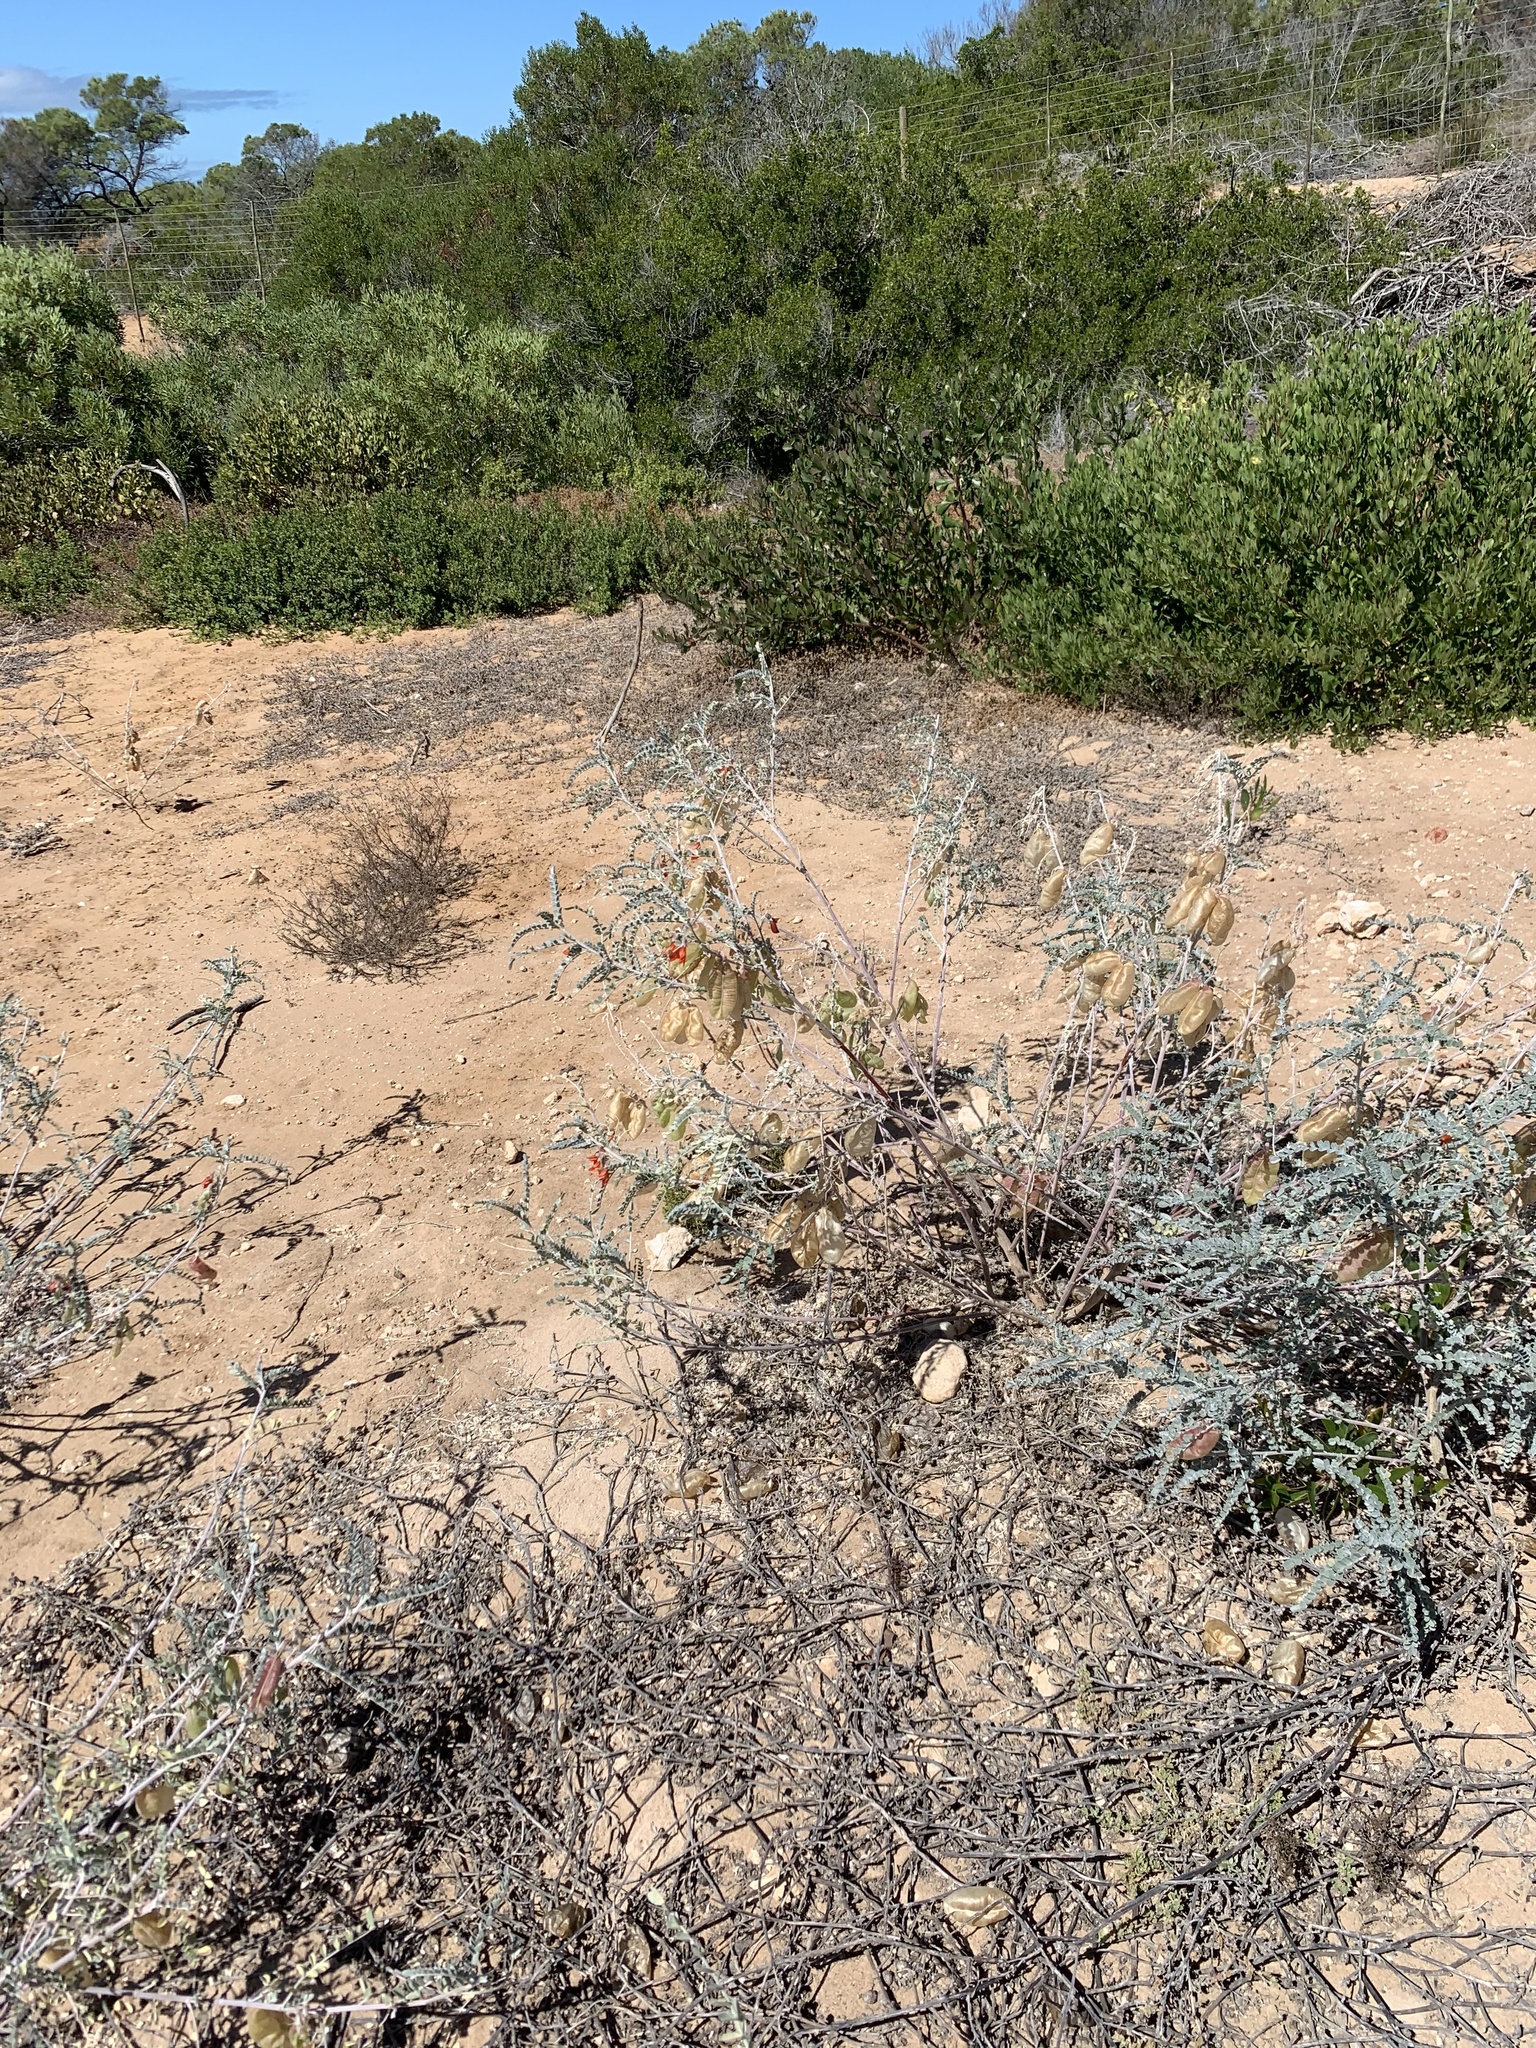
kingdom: Plantae
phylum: Tracheophyta
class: Magnoliopsida
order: Fabales
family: Fabaceae
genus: Lessertia
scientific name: Lessertia canescens
